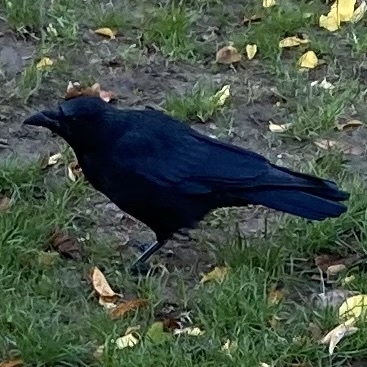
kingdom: Animalia
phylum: Chordata
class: Aves
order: Passeriformes
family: Corvidae
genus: Corvus
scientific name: Corvus corone
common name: Carrion crow
